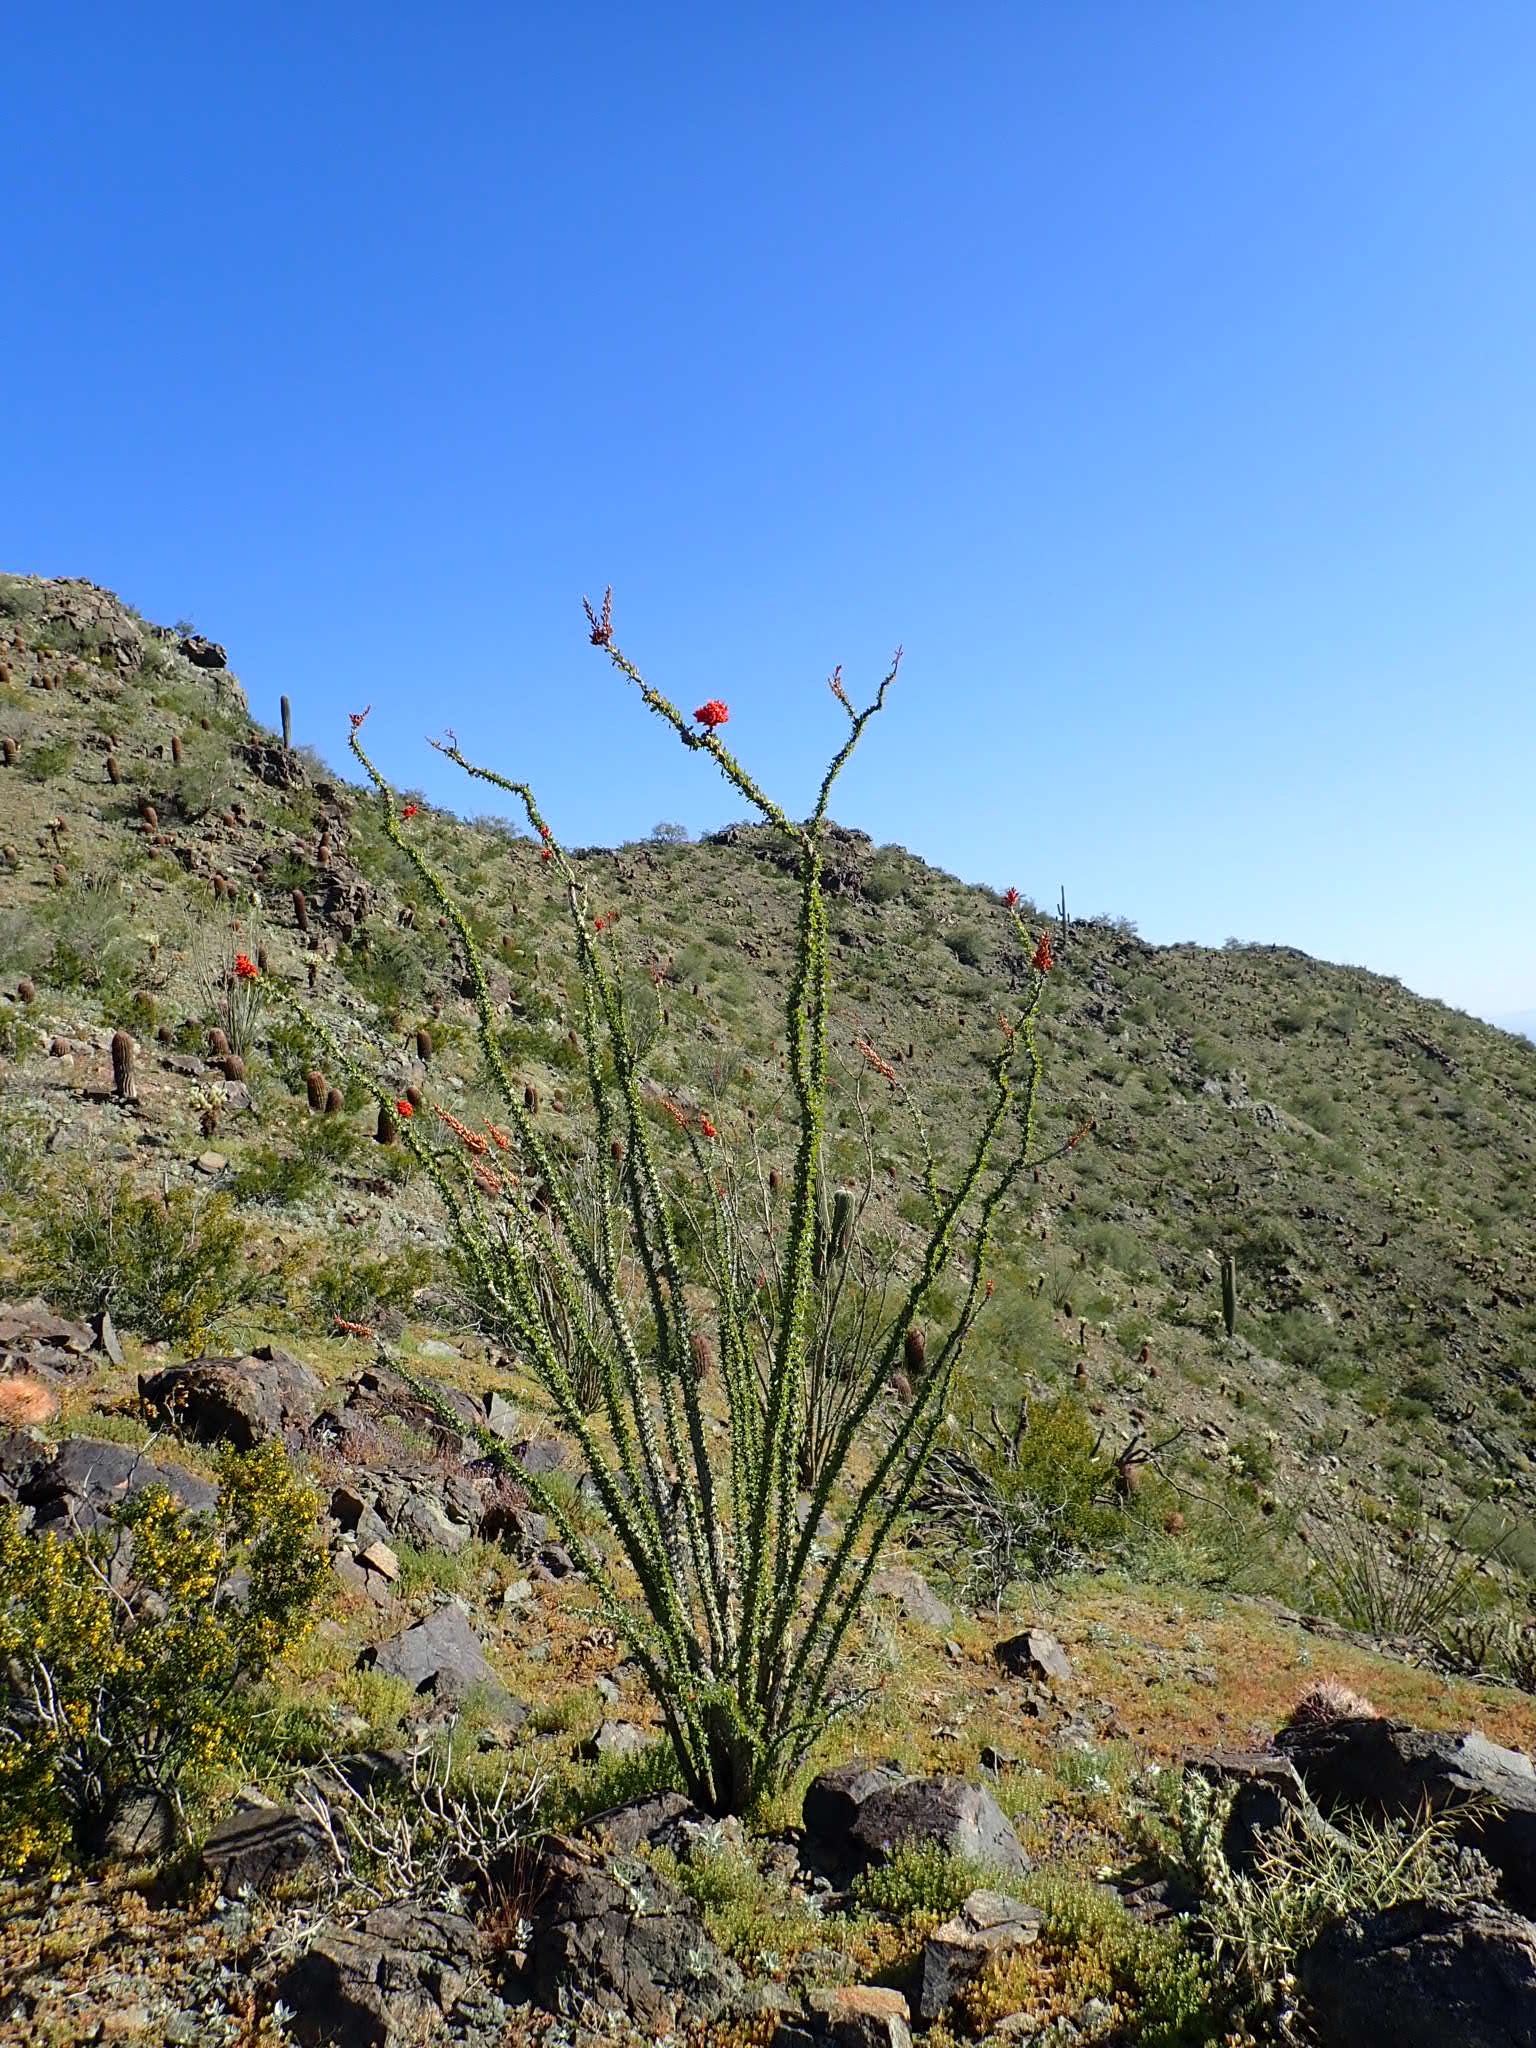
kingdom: Plantae
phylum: Tracheophyta
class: Magnoliopsida
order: Ericales
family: Fouquieriaceae
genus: Fouquieria
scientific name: Fouquieria splendens
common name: Vine-cactus
